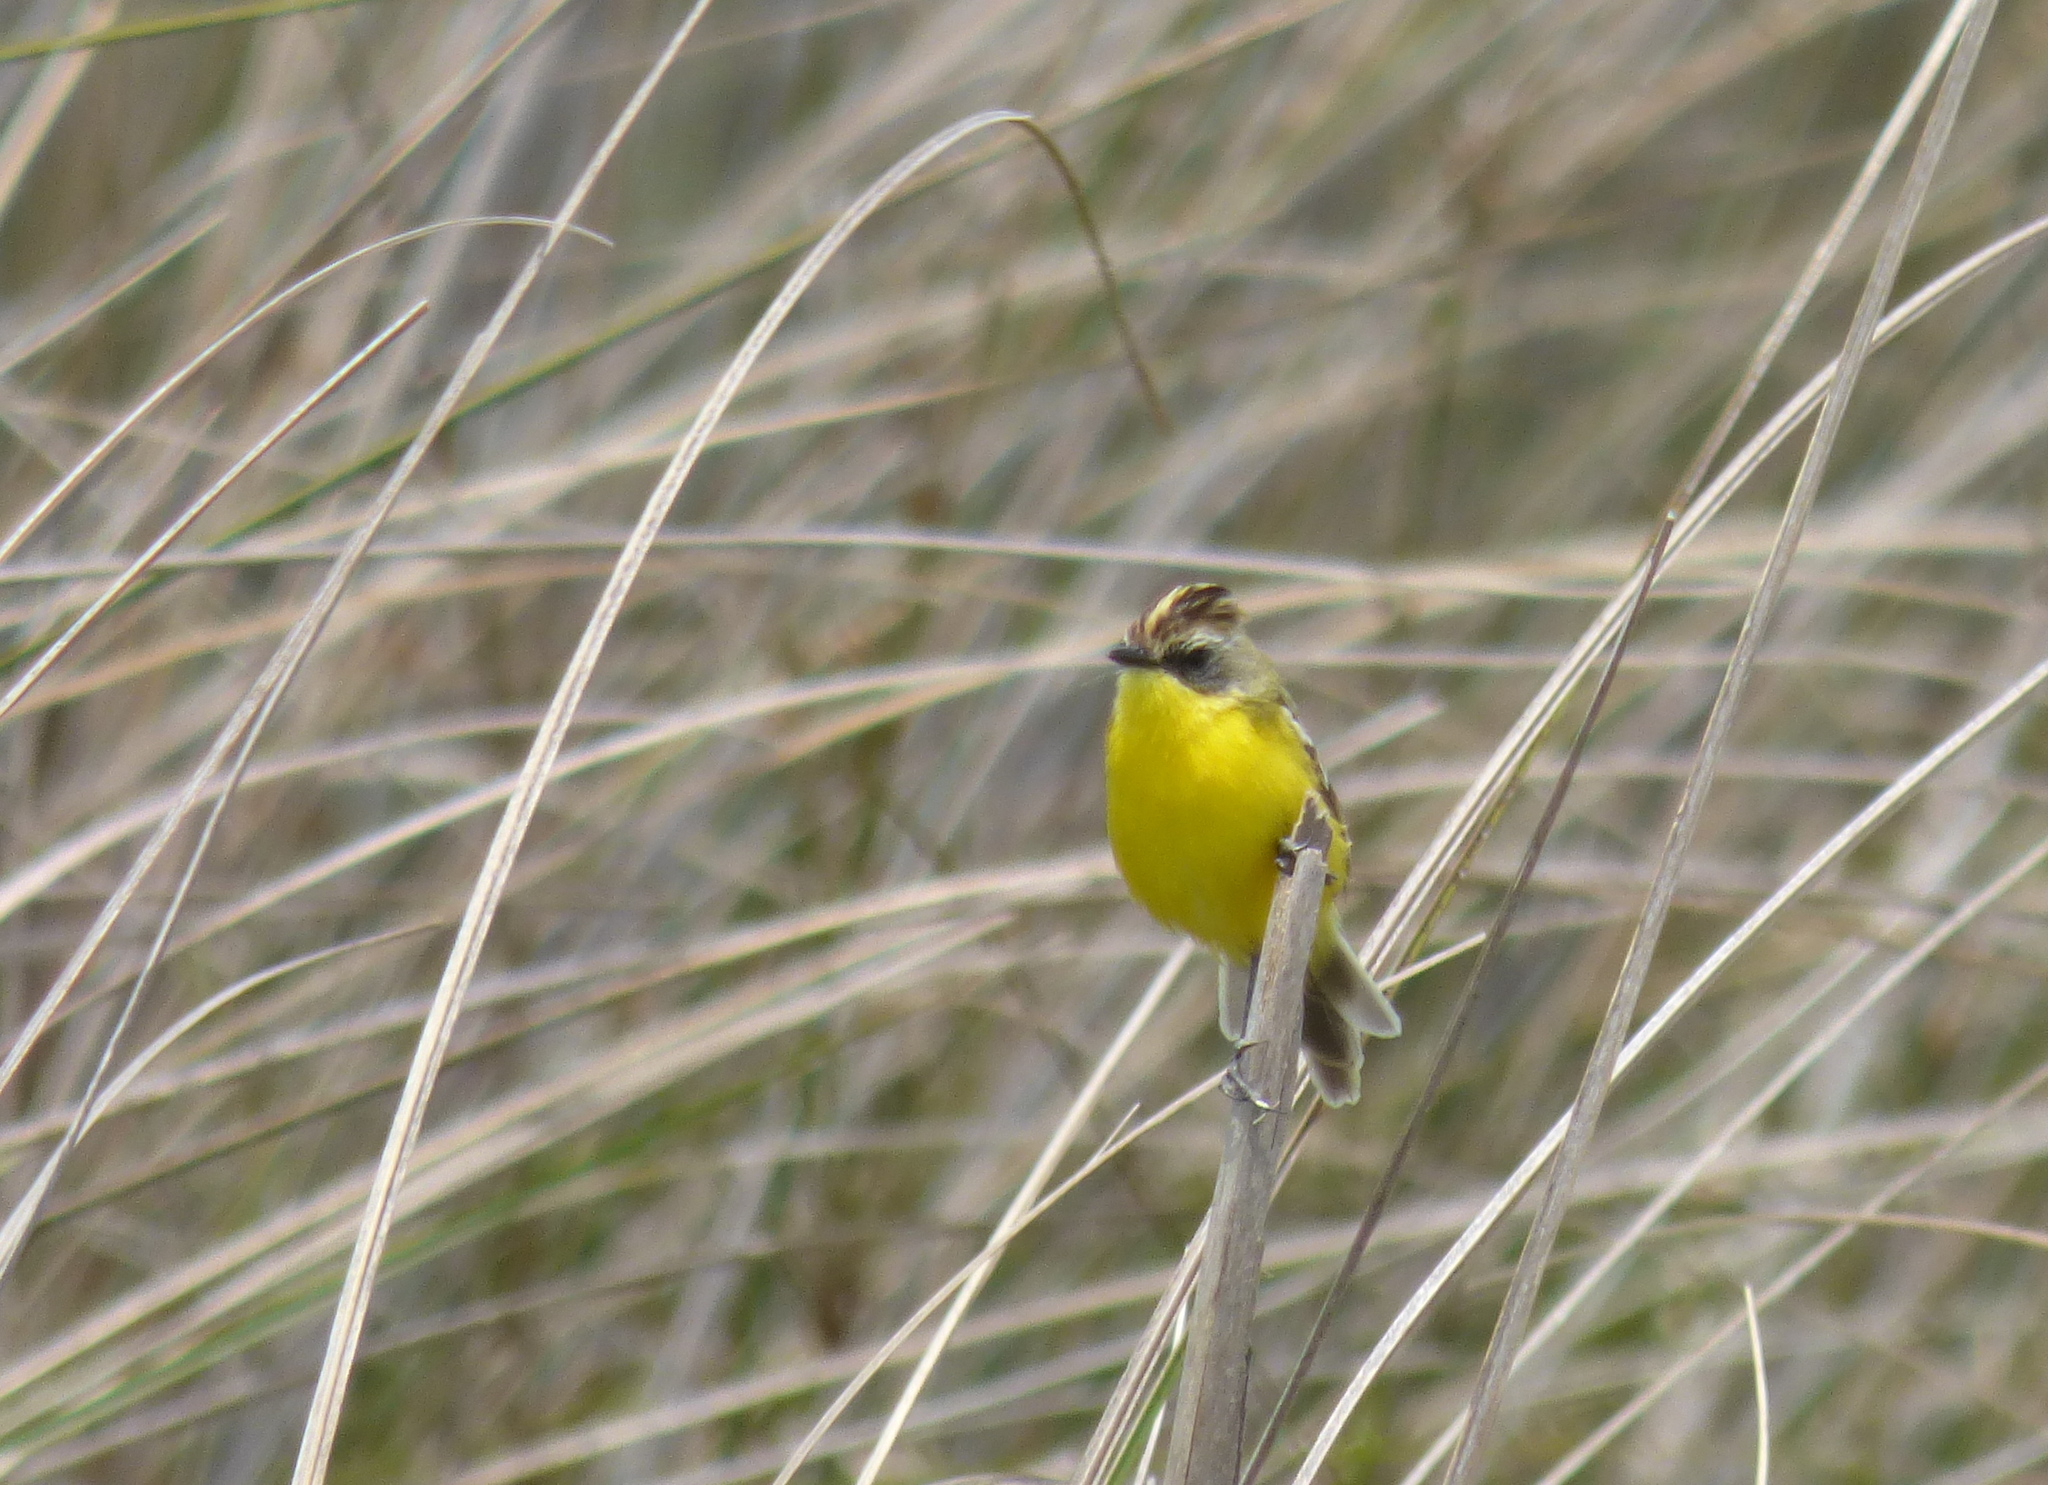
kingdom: Animalia
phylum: Chordata
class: Aves
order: Passeriformes
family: Tyrannidae
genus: Pseudocolopteryx
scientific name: Pseudocolopteryx sclateri
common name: Crested doradito
